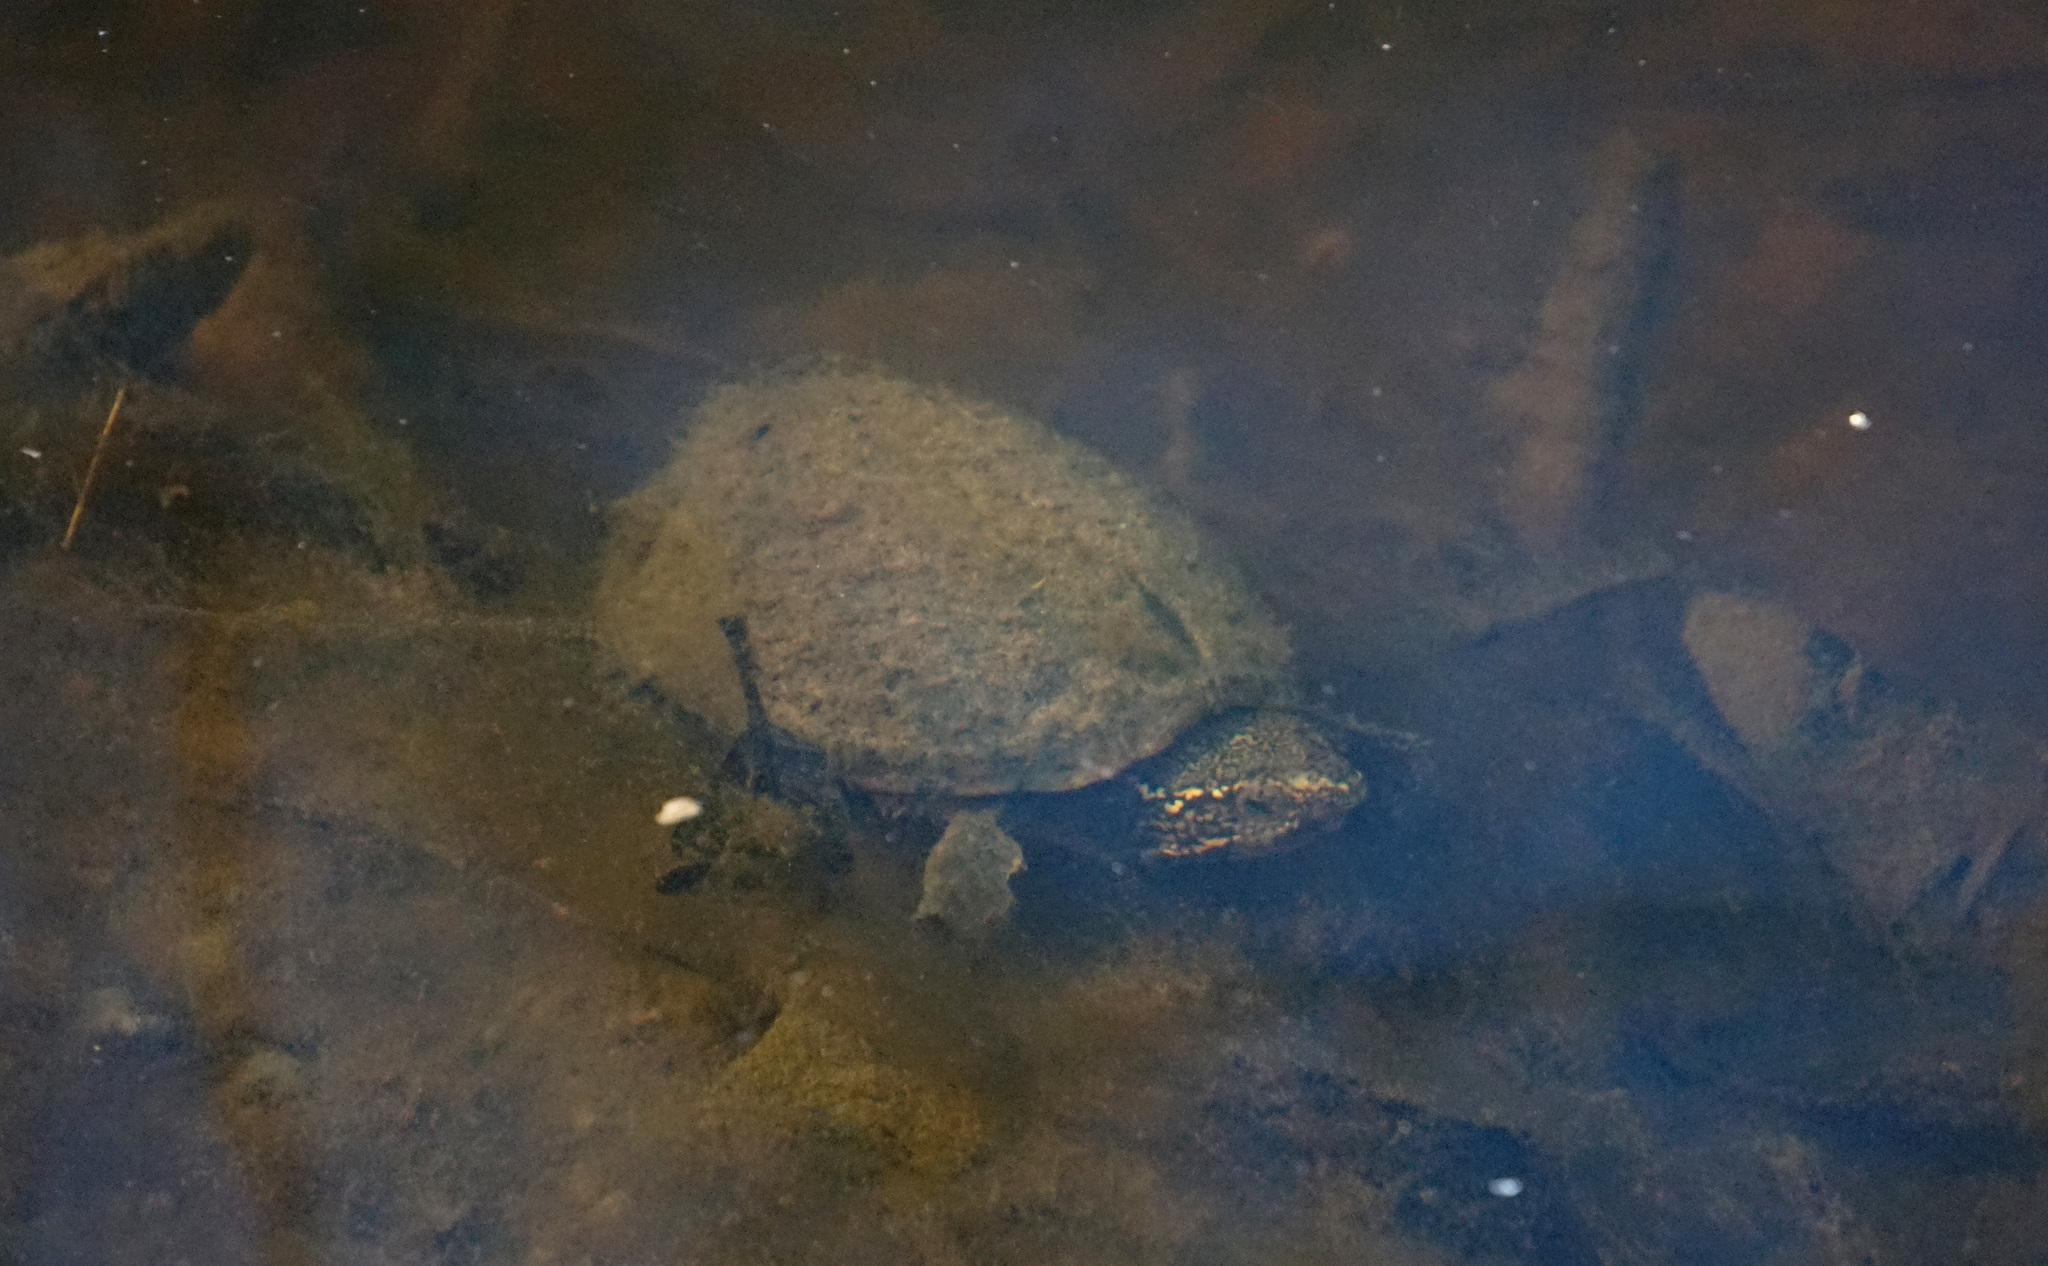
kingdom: Animalia
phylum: Chordata
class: Testudines
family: Kinosternidae
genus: Sternotherus
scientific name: Sternotherus odoratus
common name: Common musk turtle
